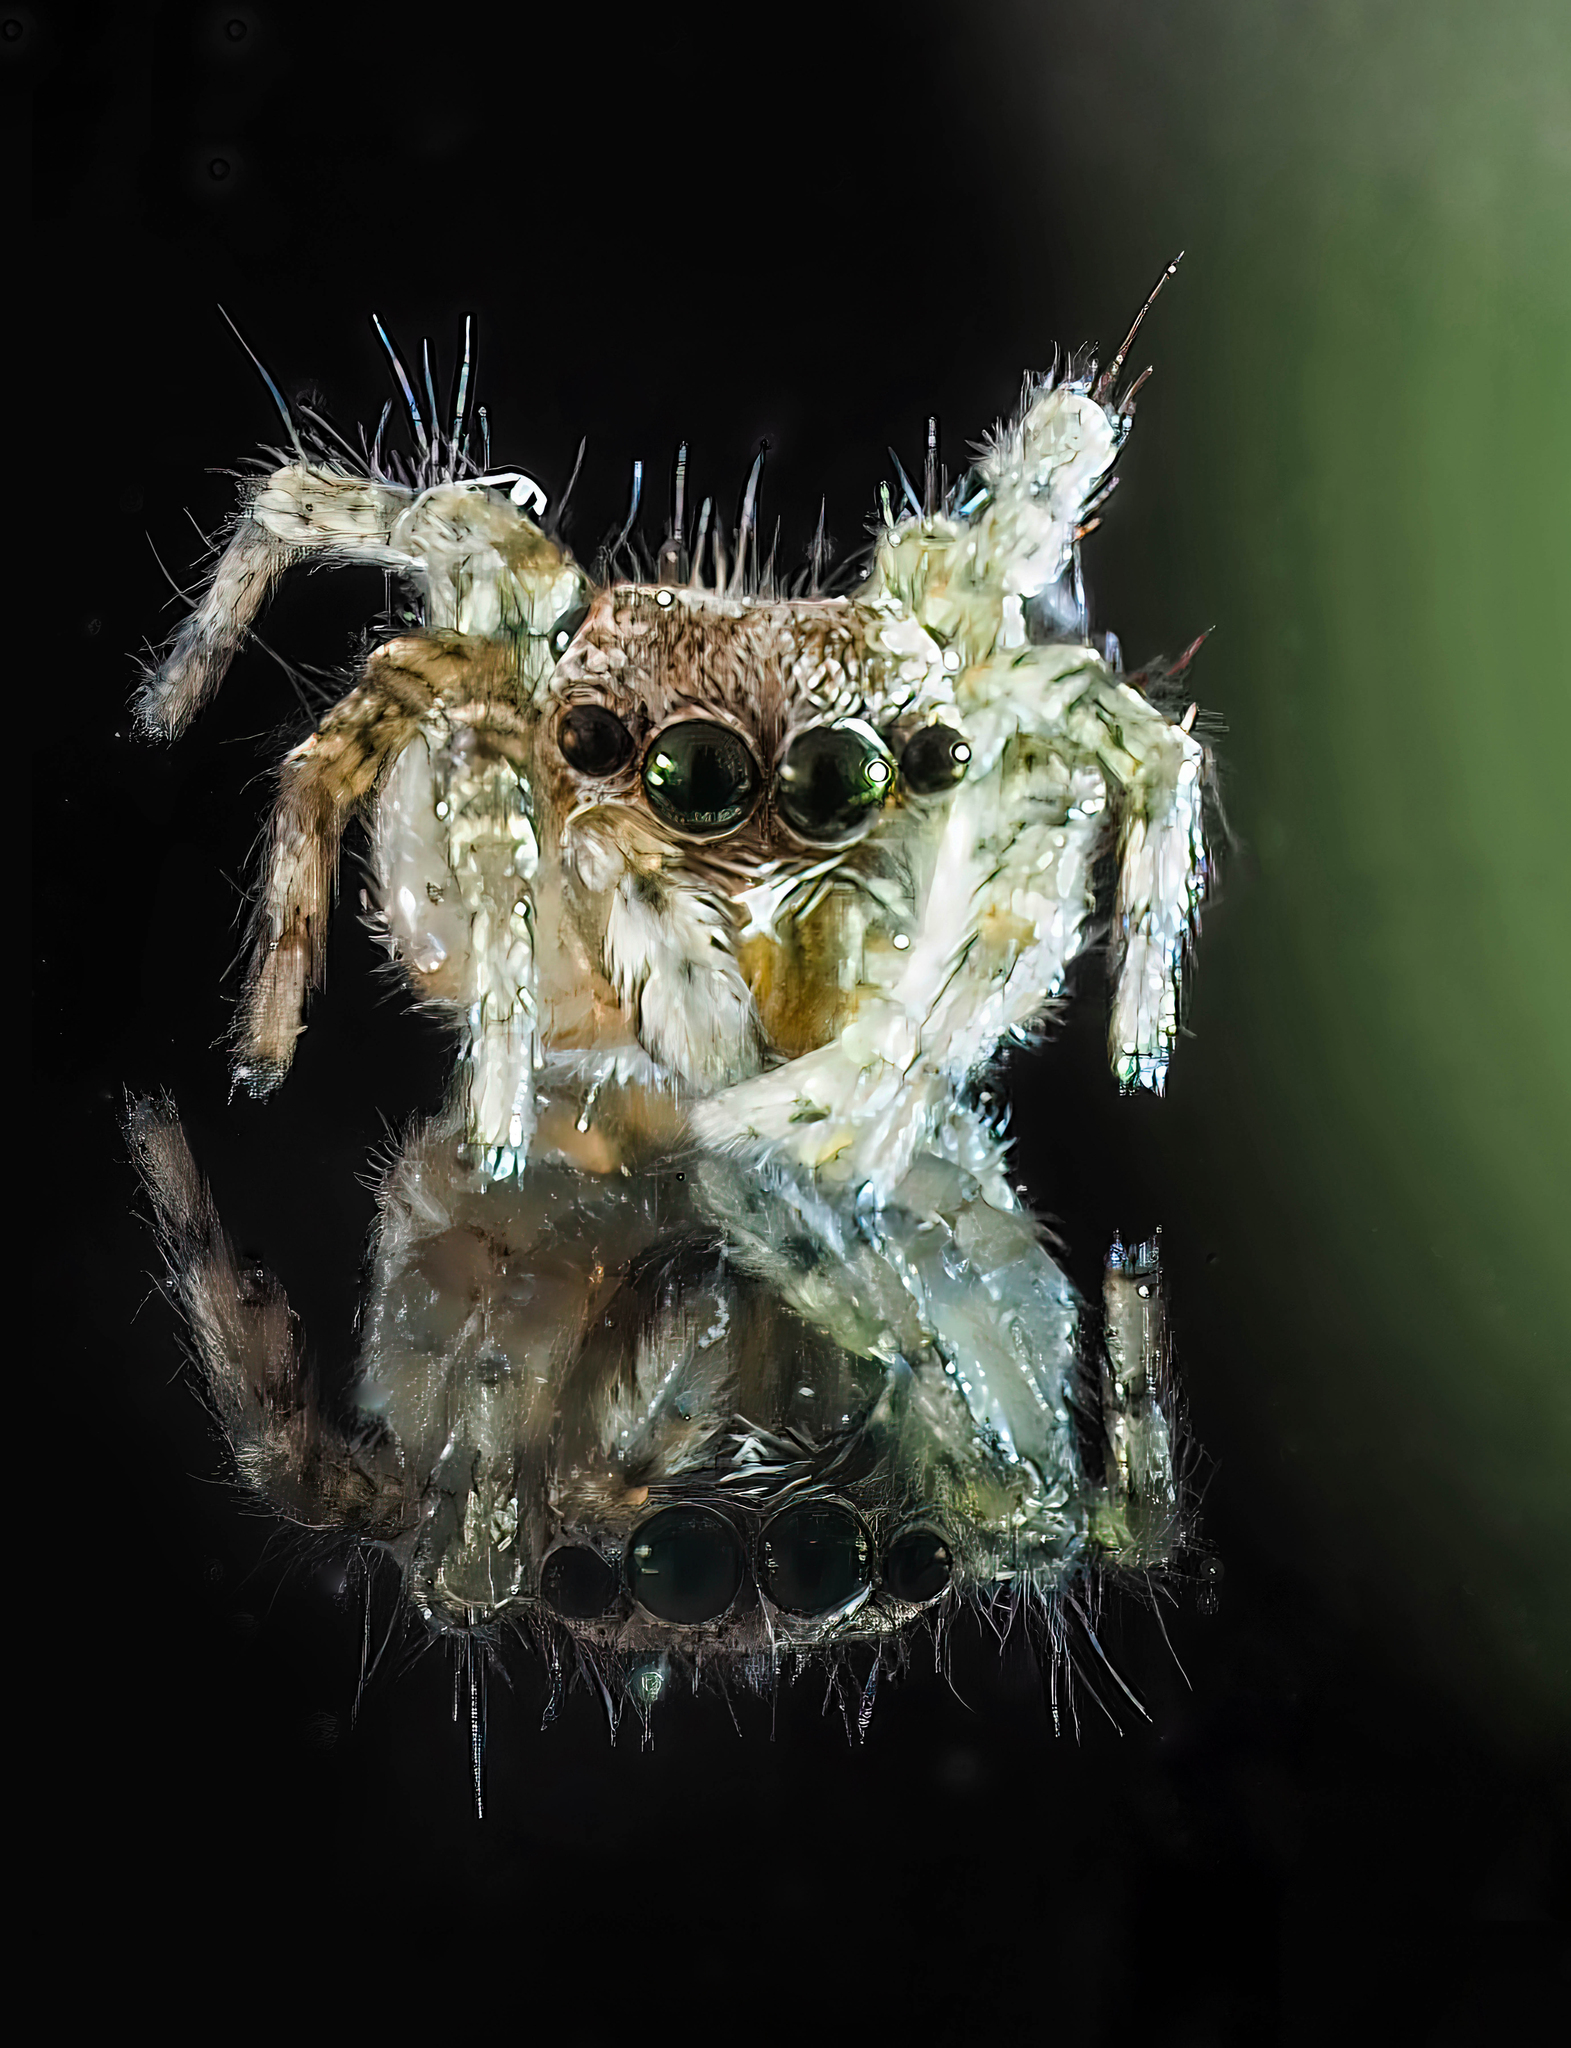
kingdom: Animalia
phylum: Arthropoda
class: Arachnida
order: Araneae
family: Salticidae
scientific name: Salticidae
